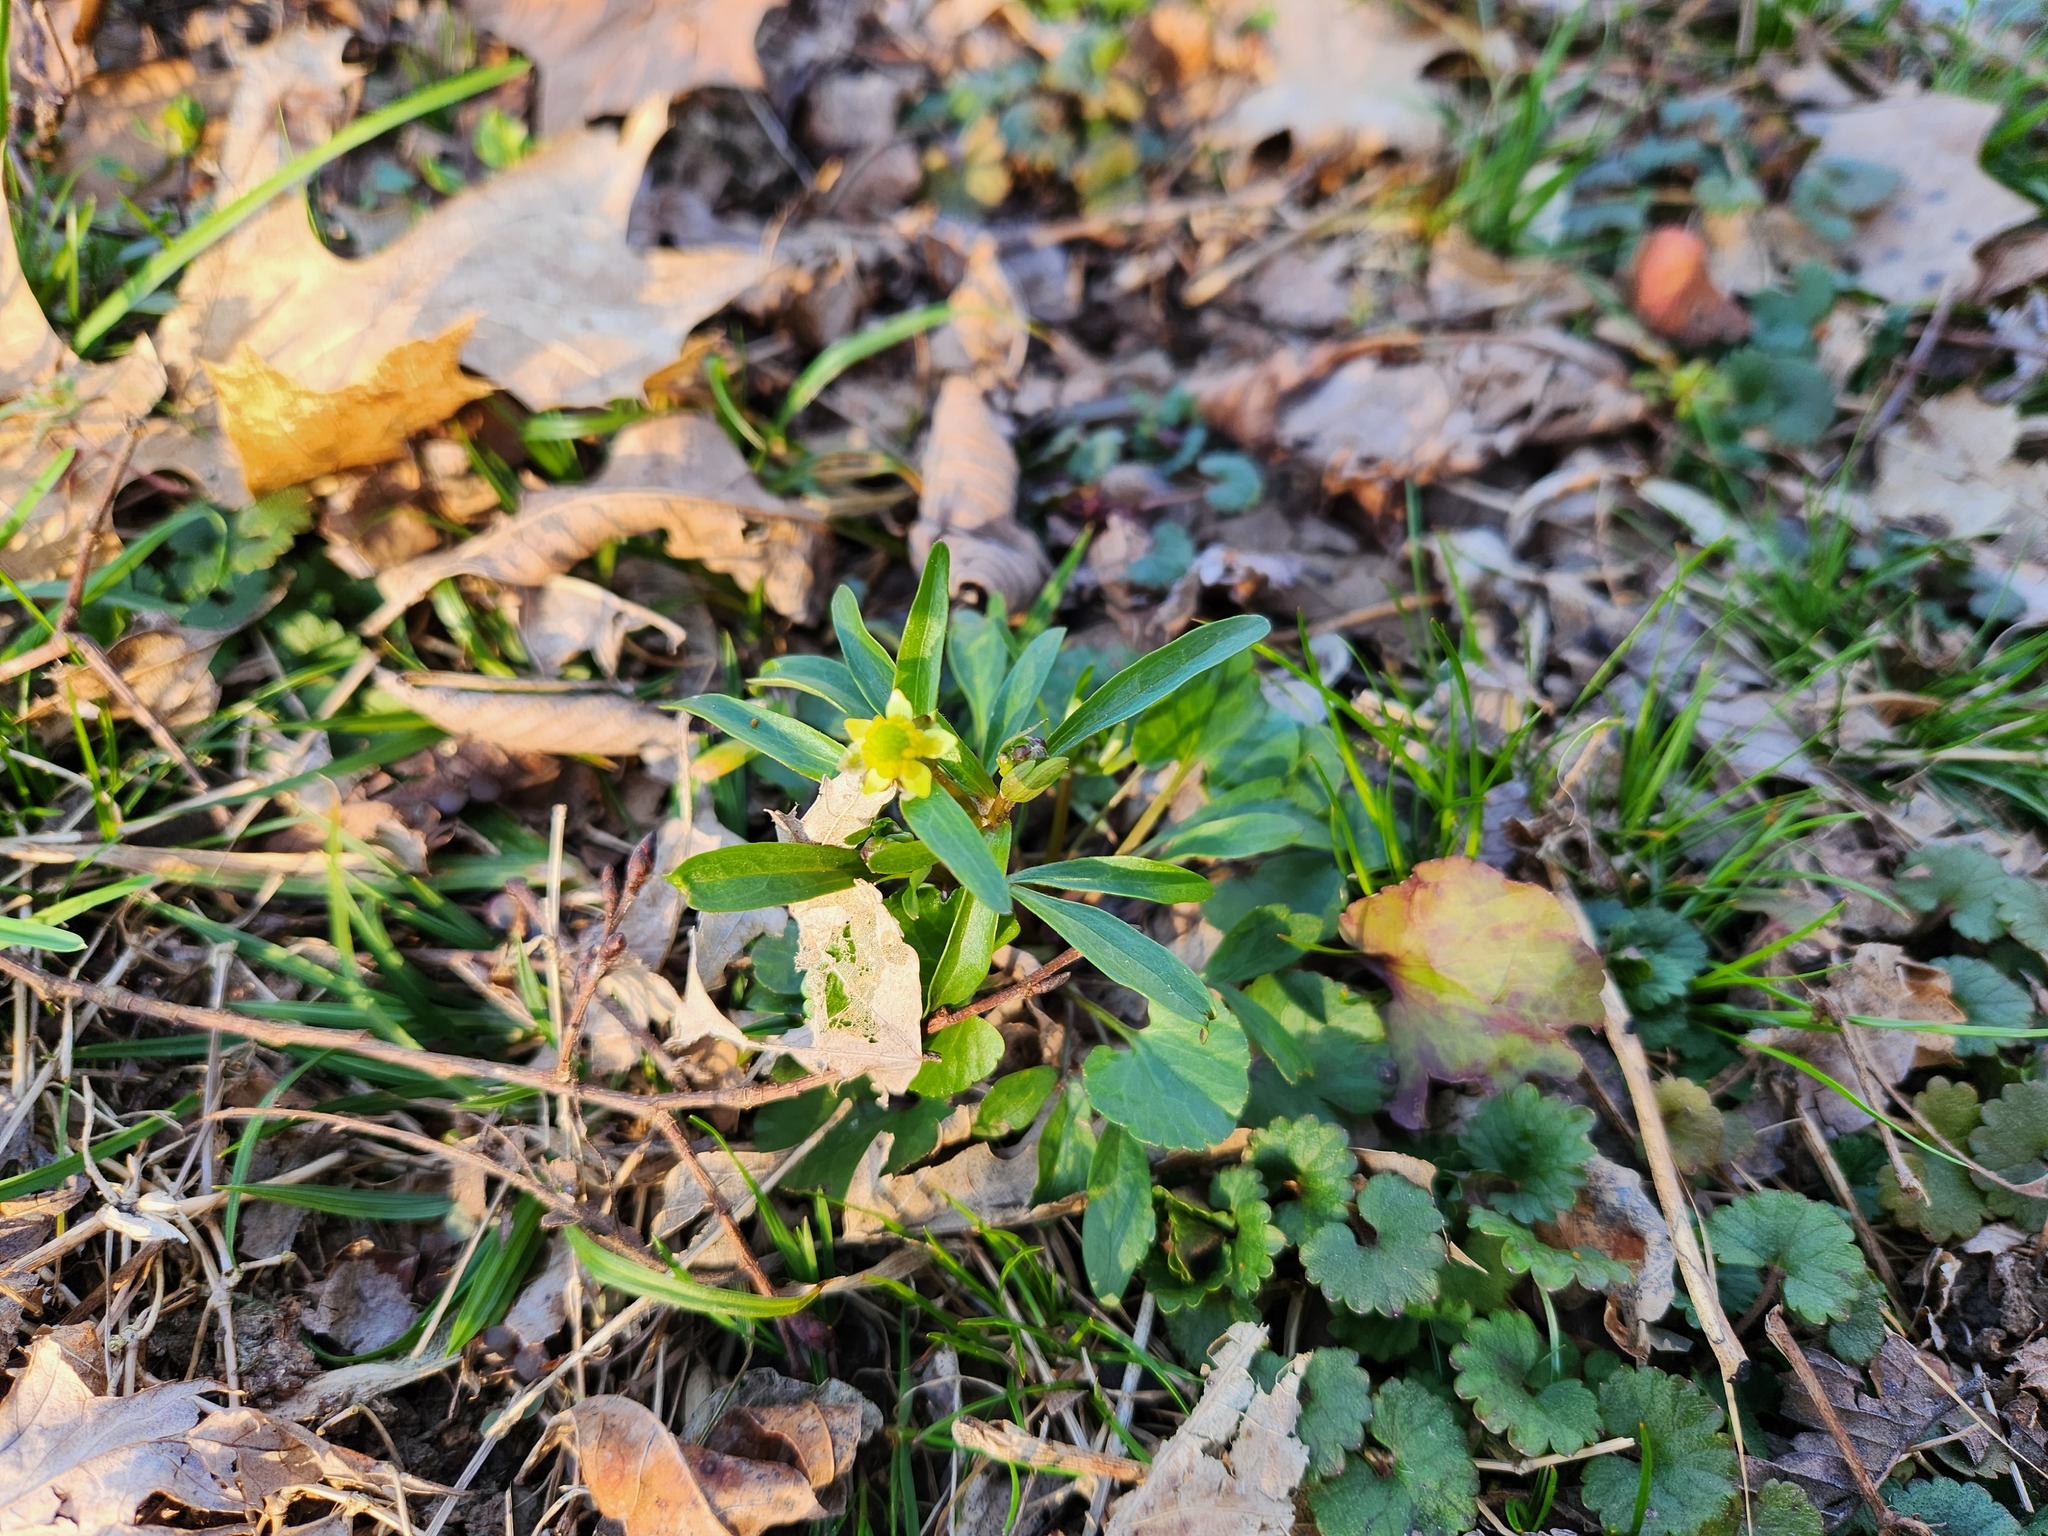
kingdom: Plantae
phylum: Tracheophyta
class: Magnoliopsida
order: Ranunculales
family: Ranunculaceae
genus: Ranunculus
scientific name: Ranunculus abortivus
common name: Early wood buttercup
